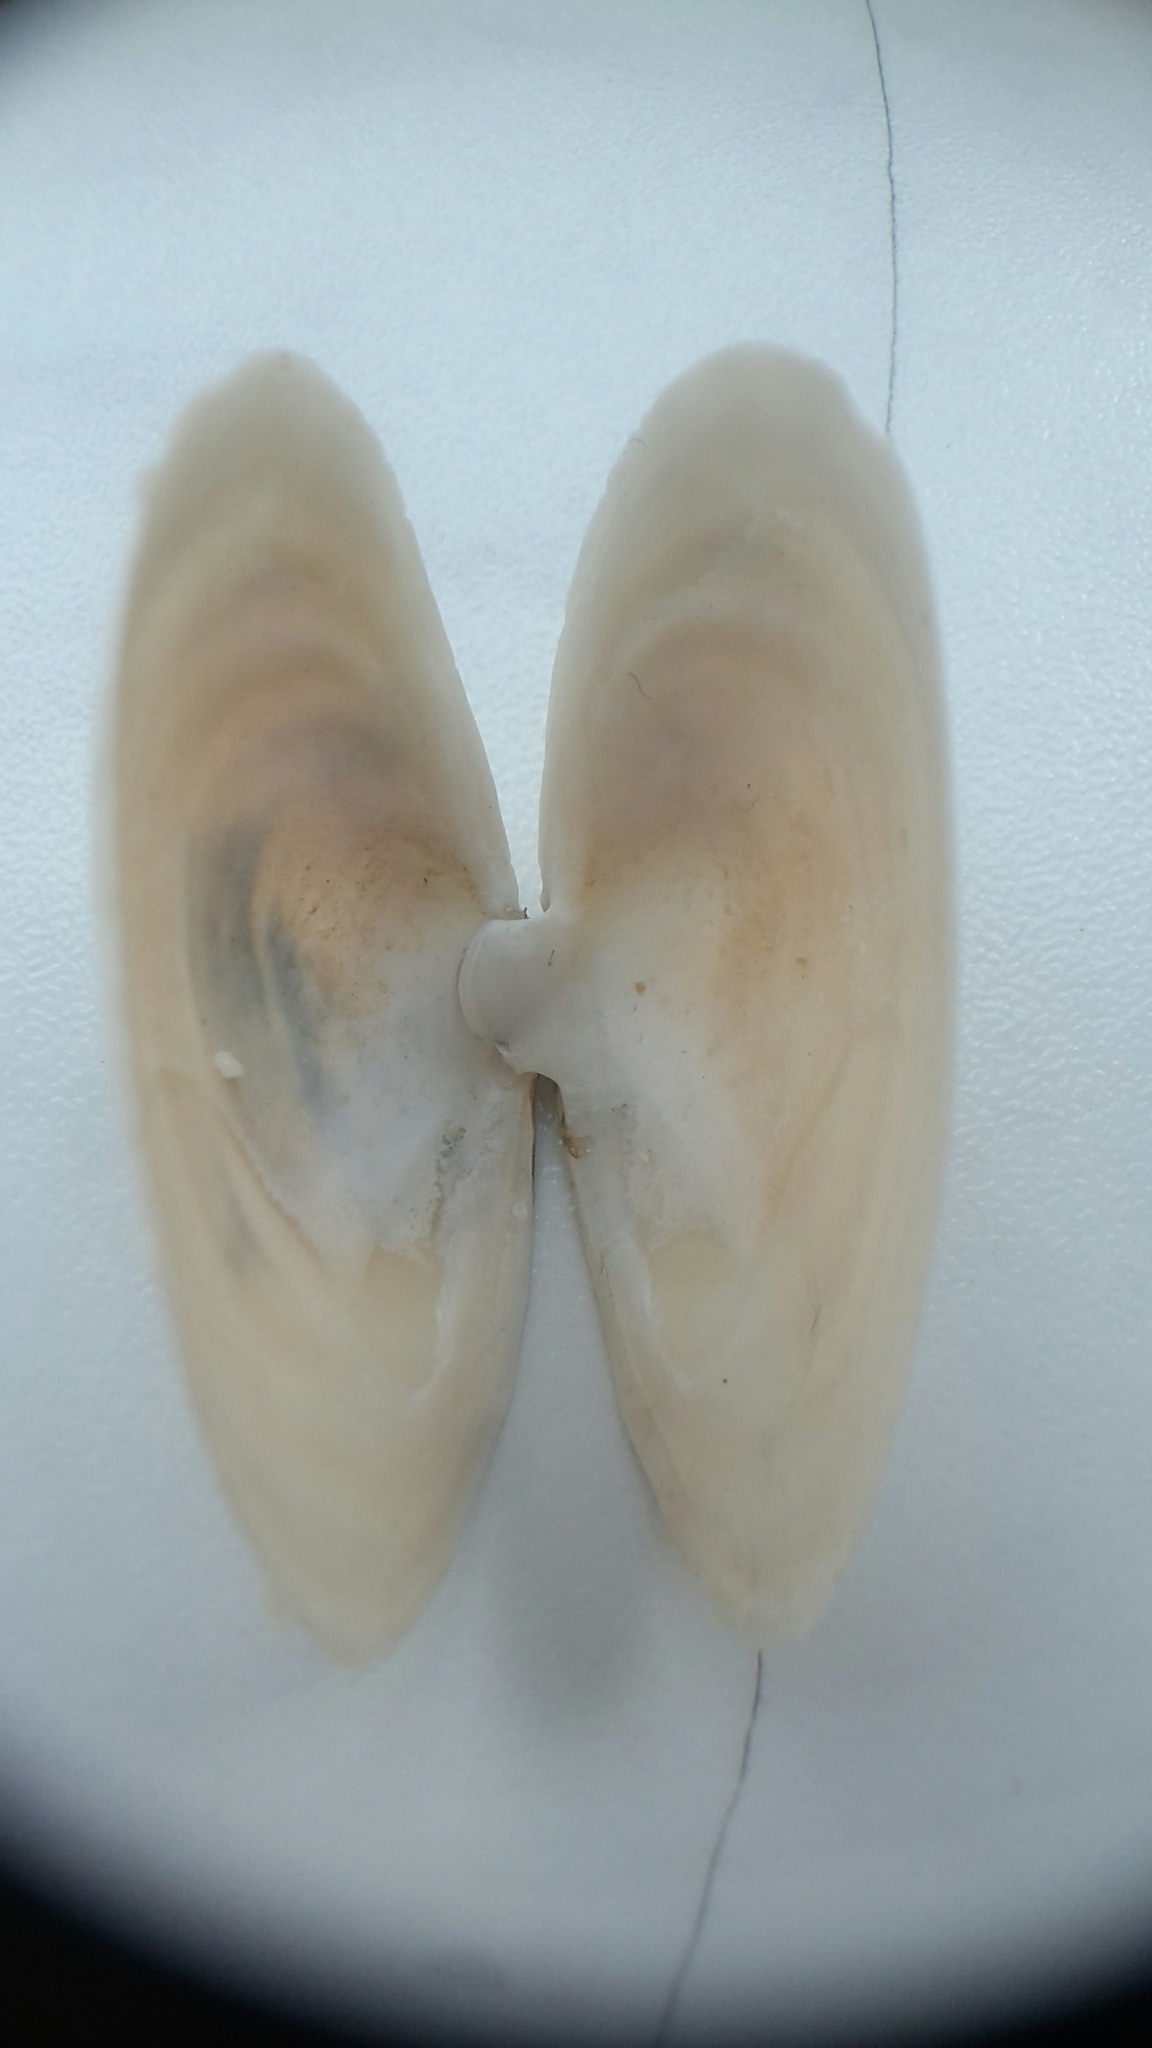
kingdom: Animalia
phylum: Mollusca
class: Bivalvia
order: Myida
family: Myidae
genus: Mya
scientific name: Mya arenaria
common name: Soft-shelled clam
